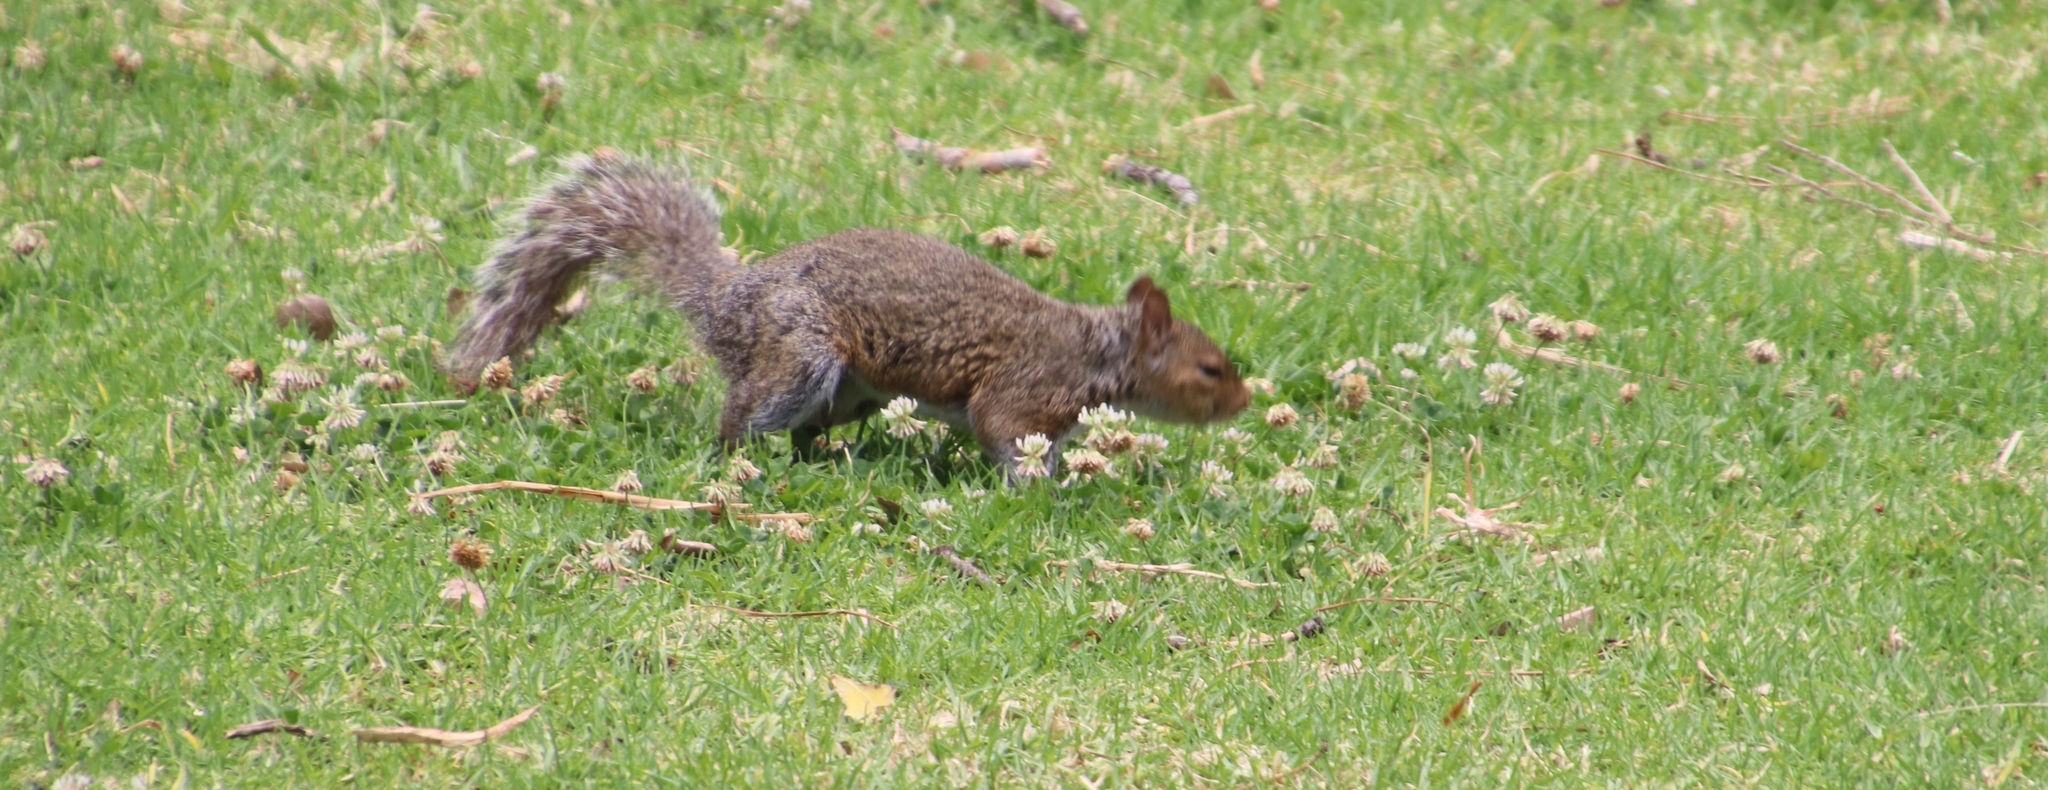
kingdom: Animalia
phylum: Chordata
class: Mammalia
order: Rodentia
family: Sciuridae
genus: Sciurus
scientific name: Sciurus carolinensis
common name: Eastern gray squirrel
